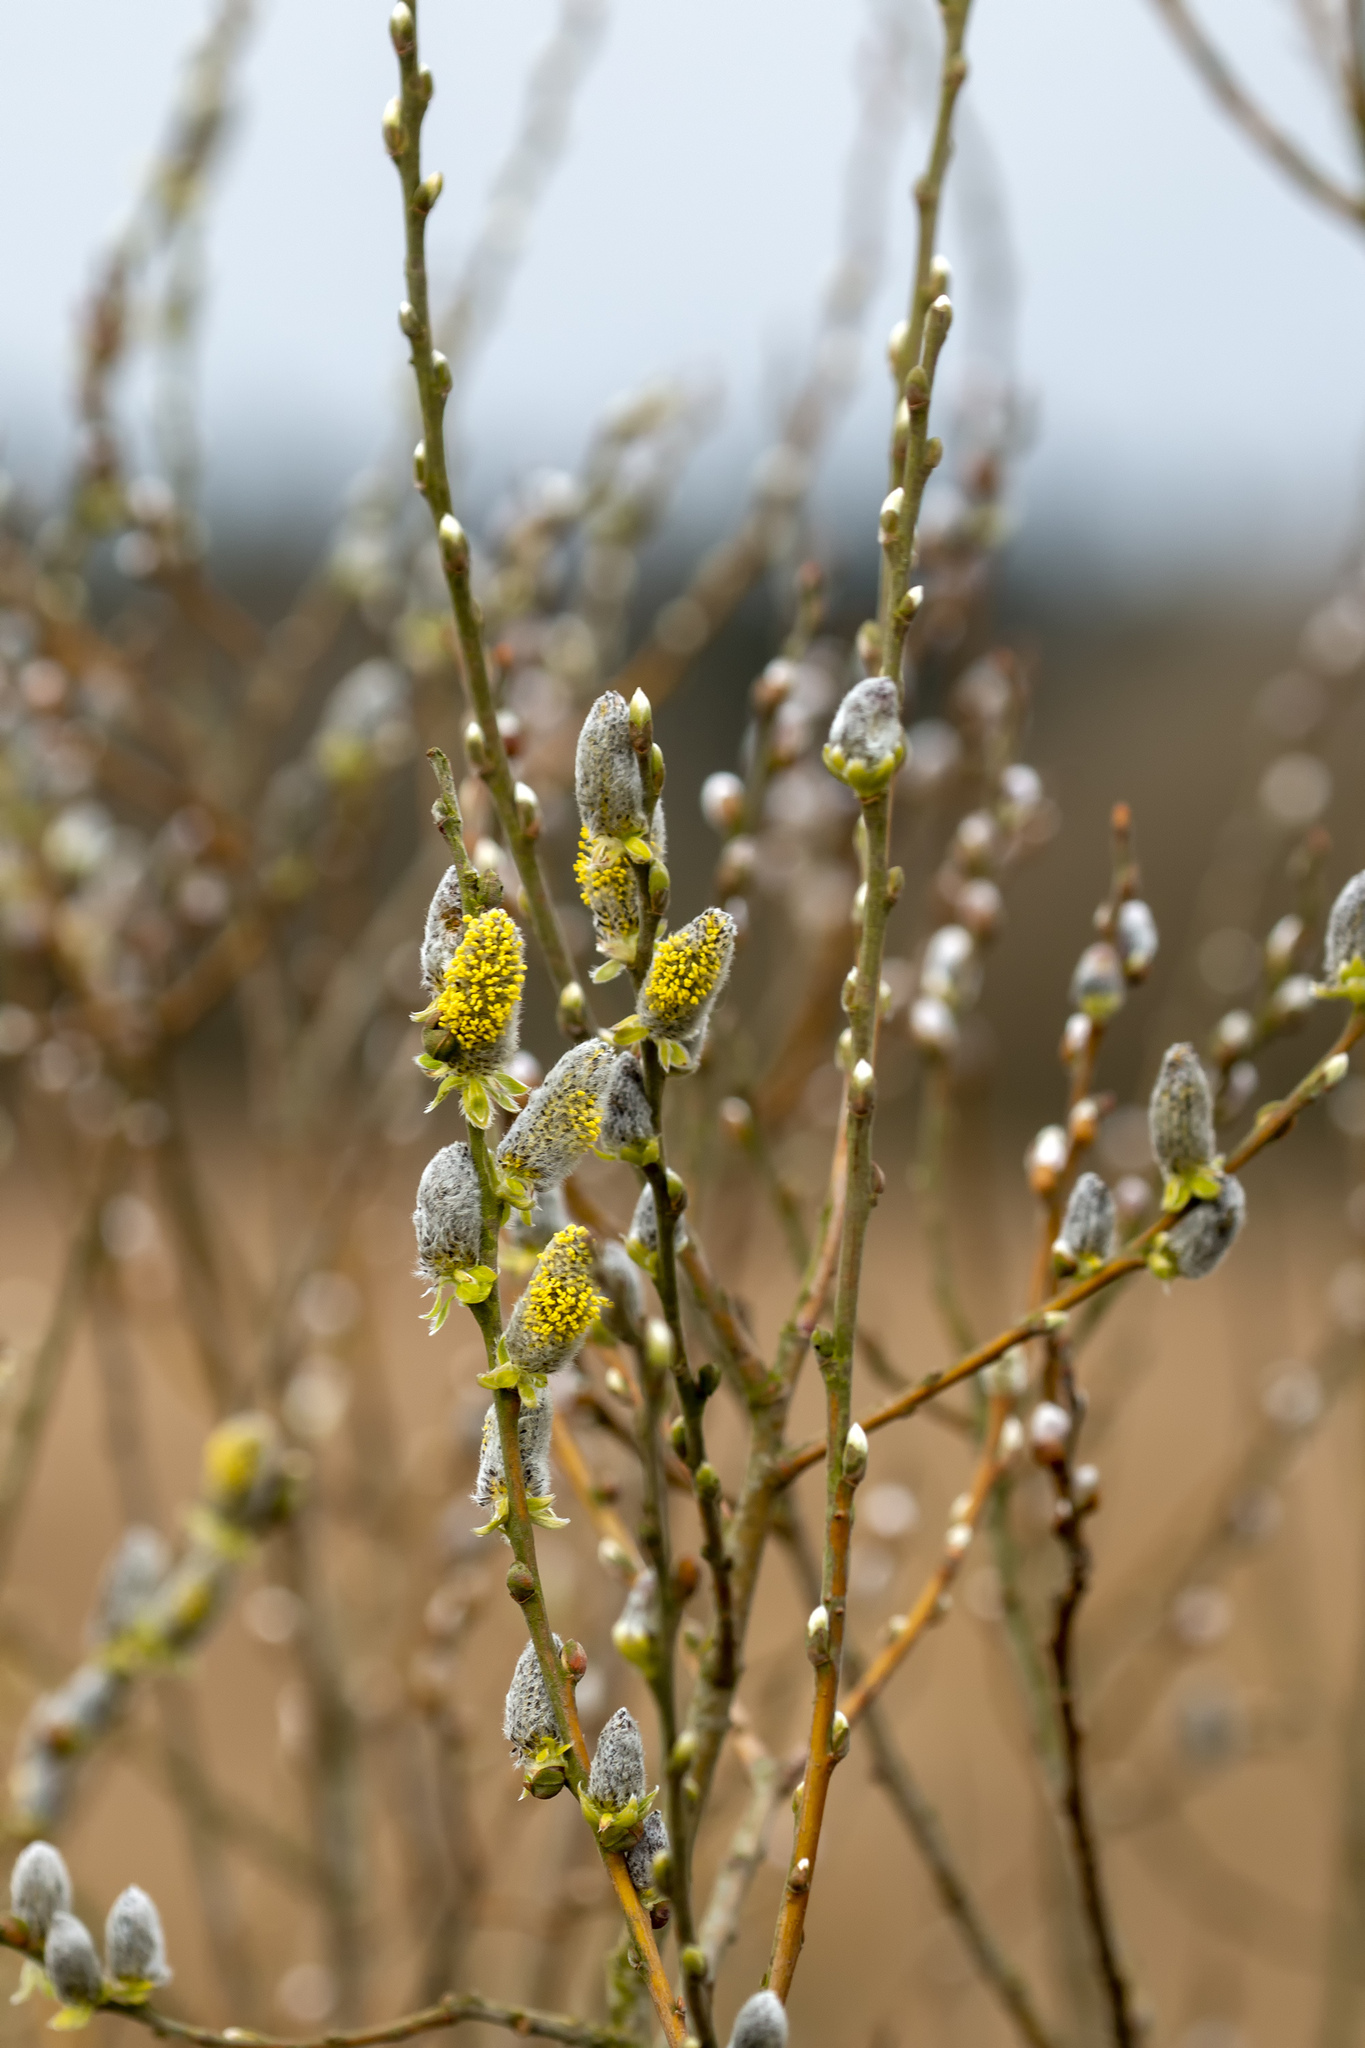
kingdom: Plantae
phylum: Tracheophyta
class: Magnoliopsida
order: Malpighiales
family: Salicaceae
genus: Salix
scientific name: Salix caprea
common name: Goat willow
